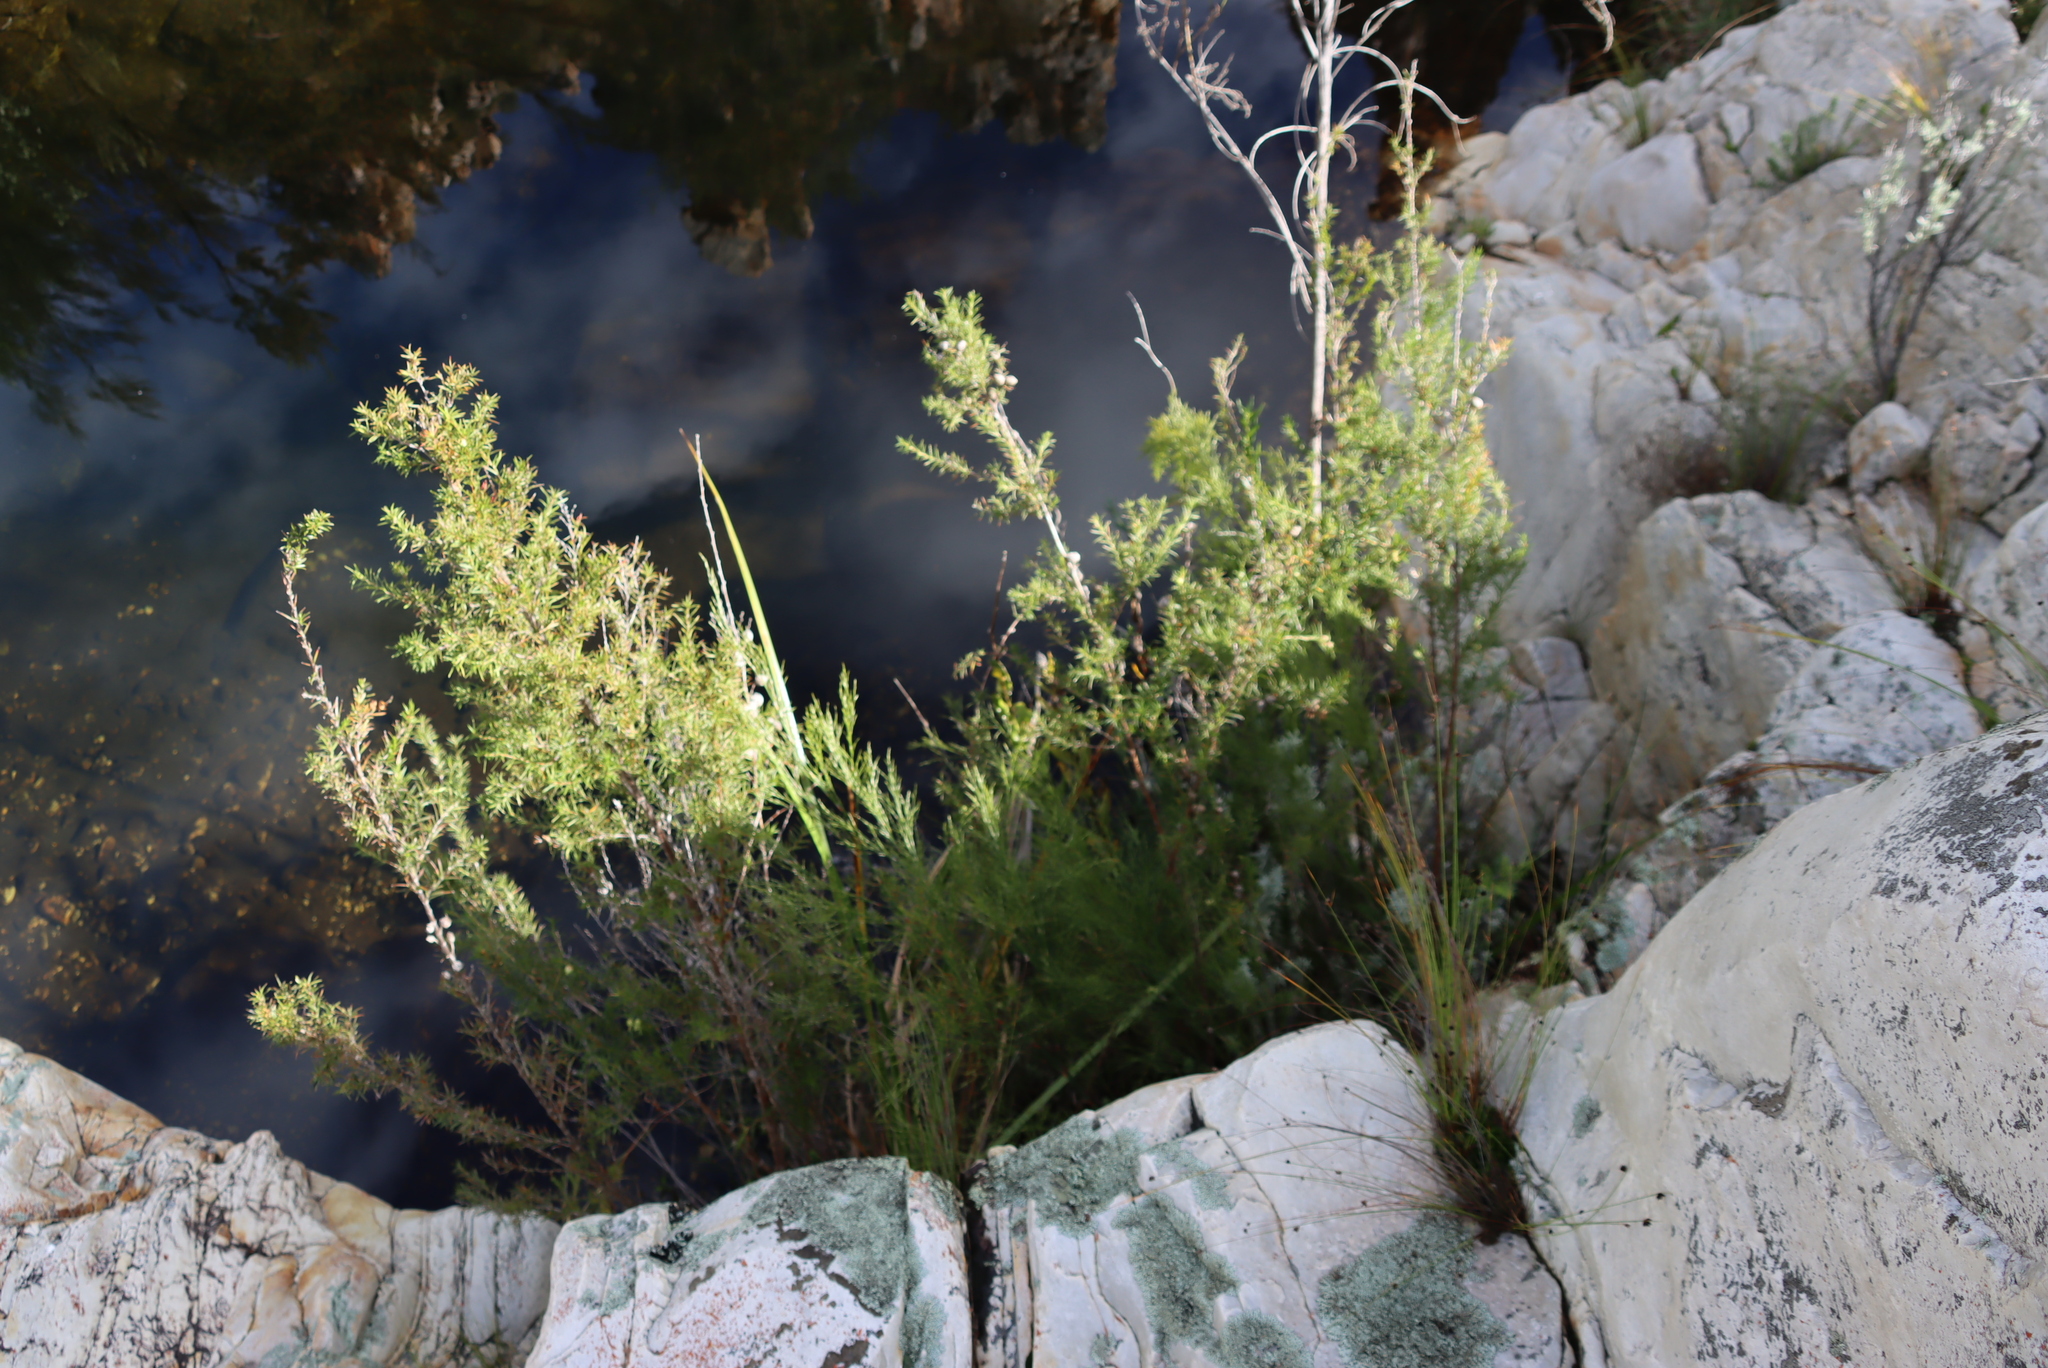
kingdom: Plantae
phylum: Tracheophyta
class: Magnoliopsida
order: Rosales
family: Rosaceae
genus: Cliffortia
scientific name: Cliffortia strobilifera
